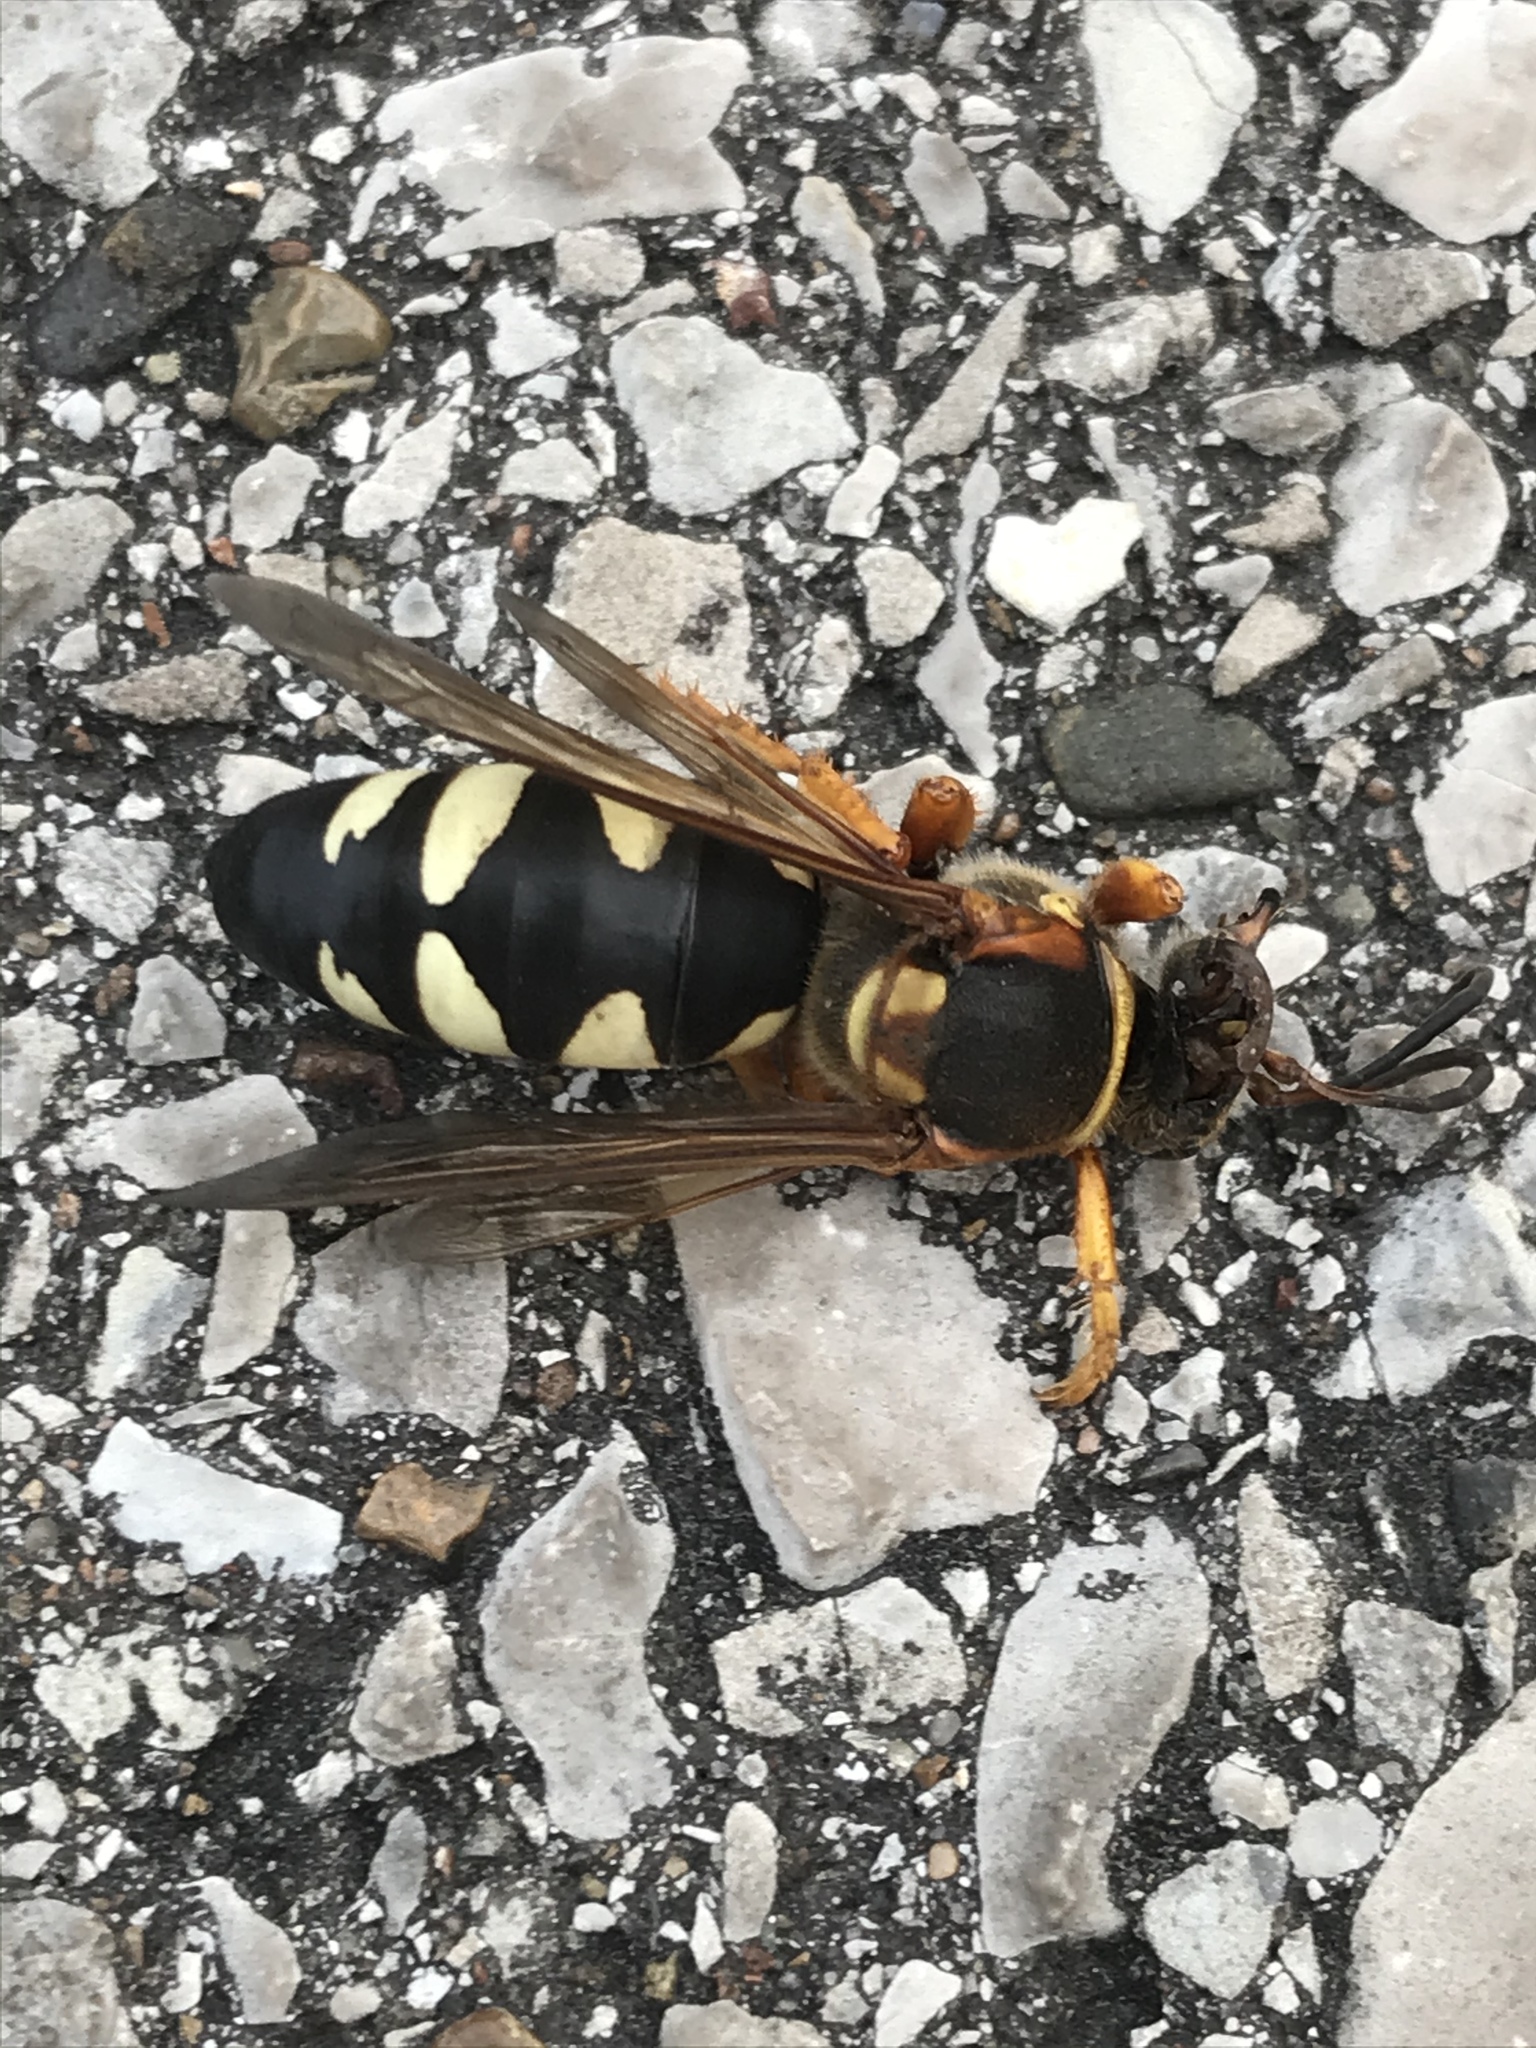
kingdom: Animalia
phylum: Arthropoda
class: Insecta
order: Hymenoptera
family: Crabronidae
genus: Sphecius
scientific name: Sphecius speciosus
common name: Cicada killer
